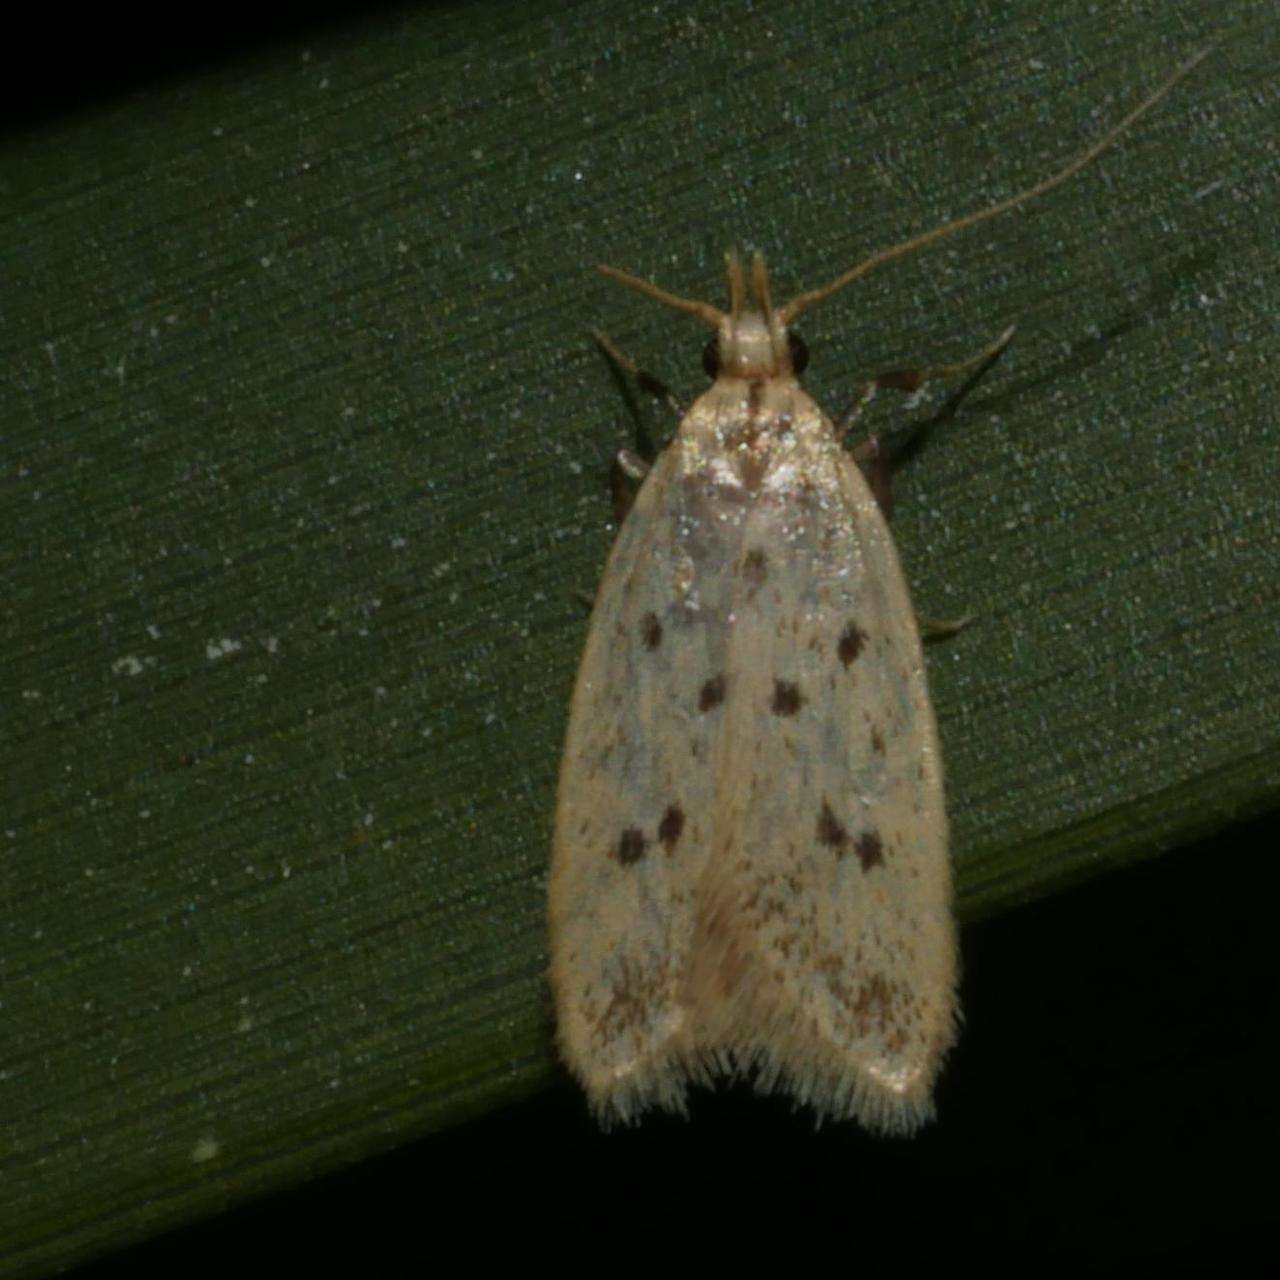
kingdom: Animalia
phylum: Arthropoda
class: Insecta
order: Lepidoptera
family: Oecophoridae
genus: Atheropla
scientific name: Atheropla melichlora
